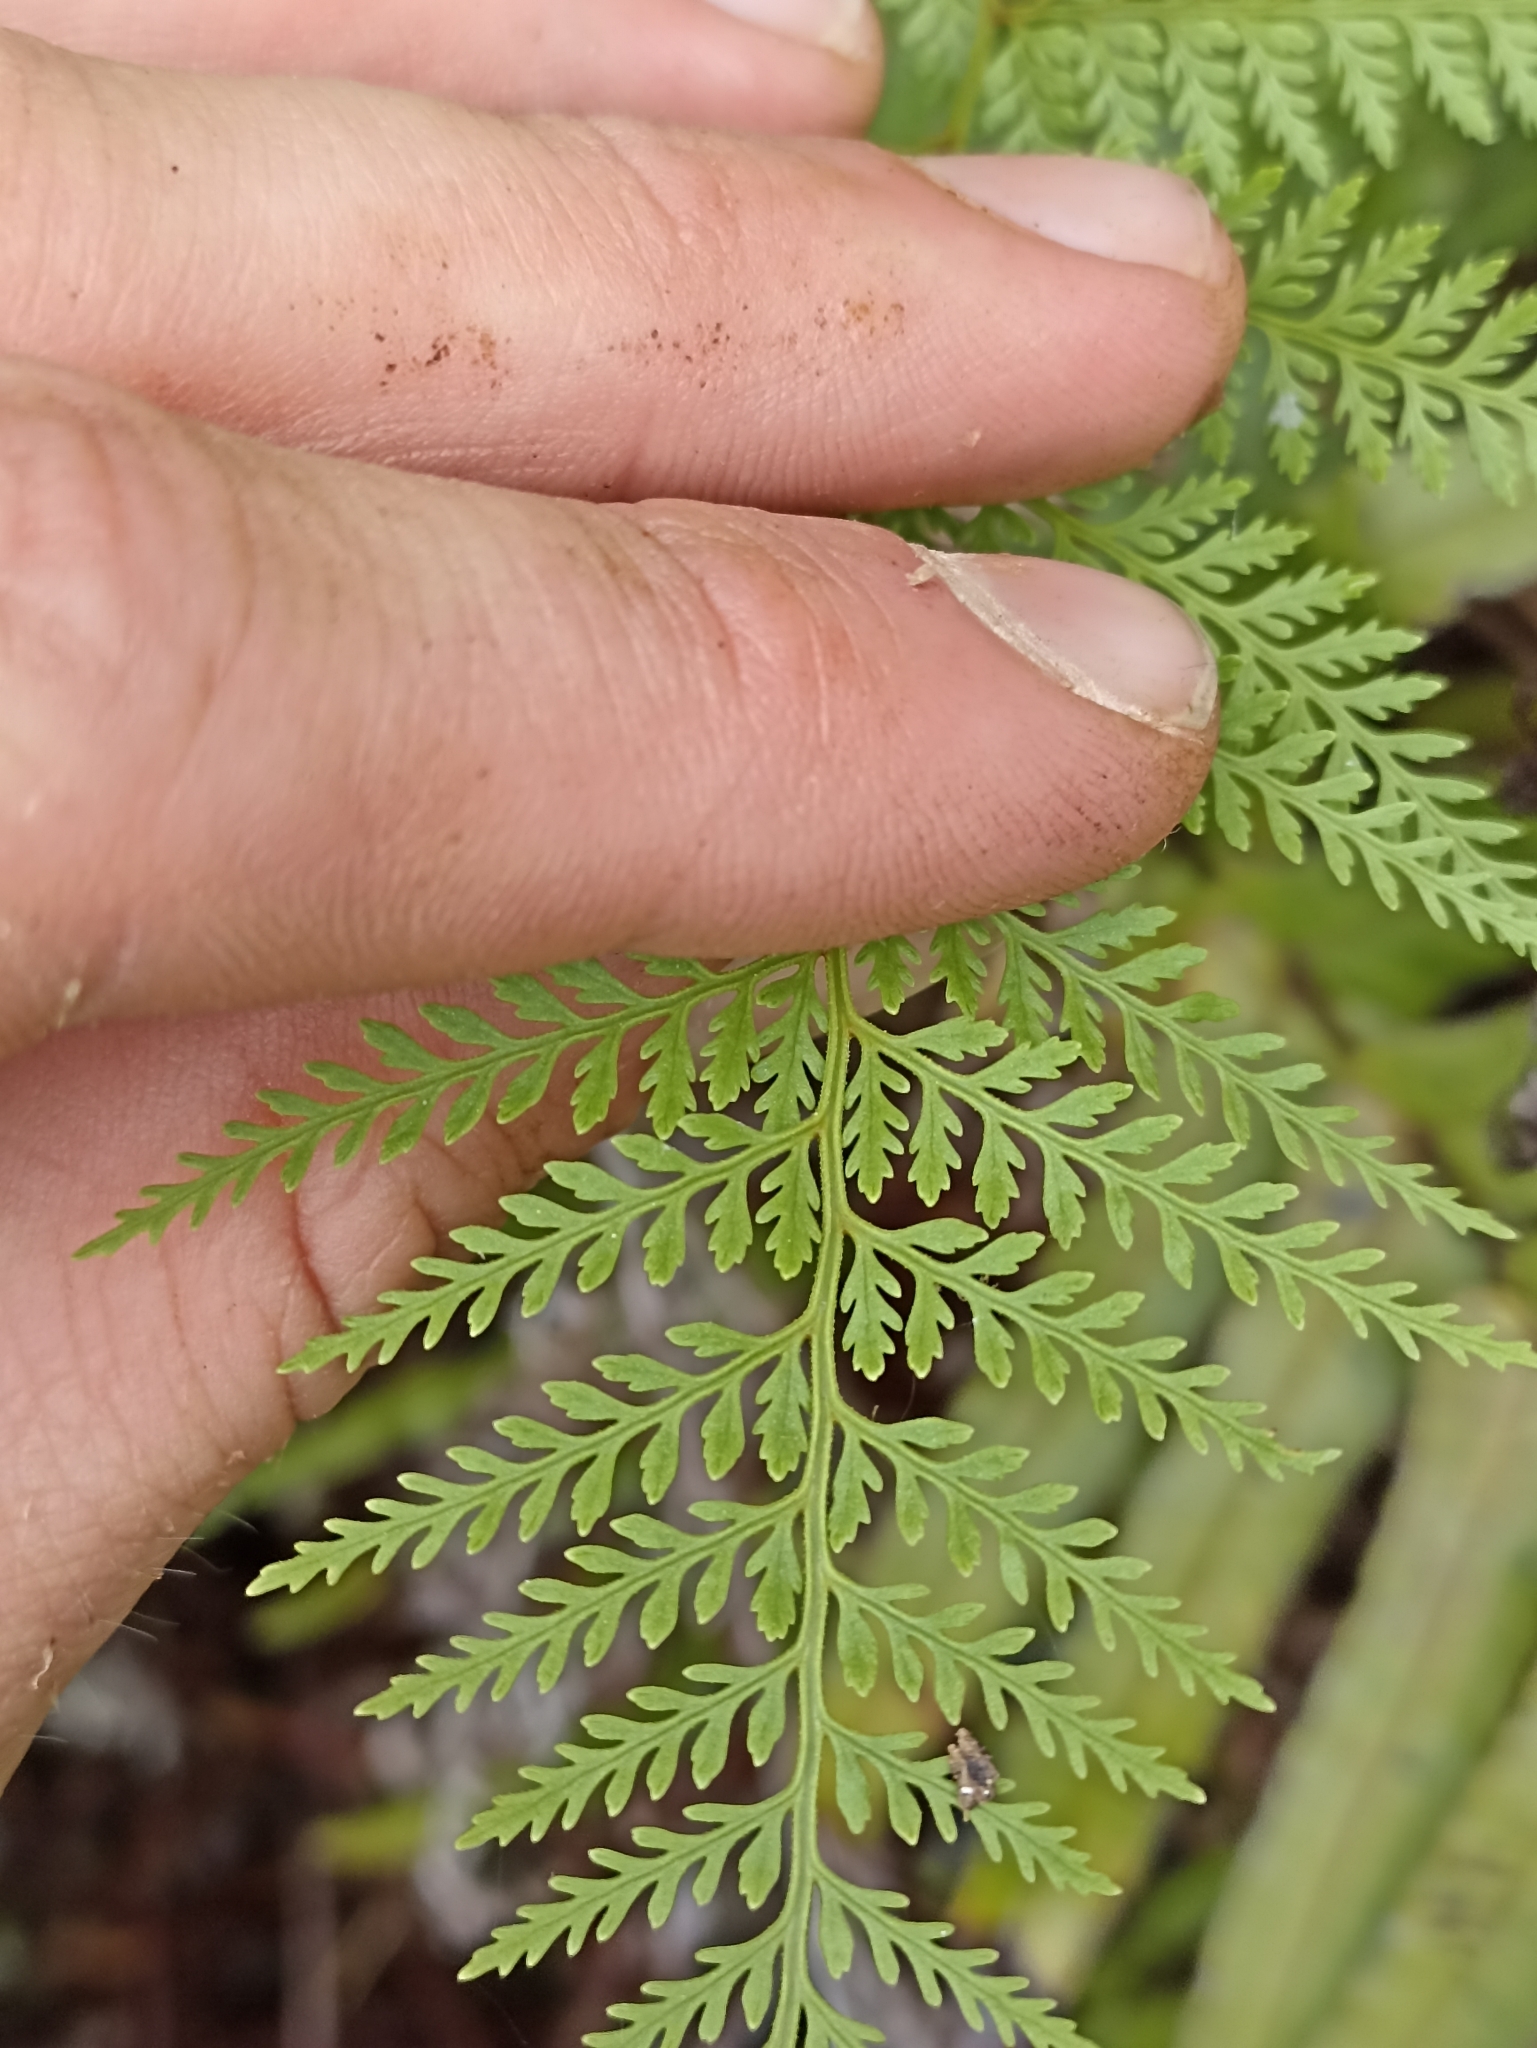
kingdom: Plantae
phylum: Tracheophyta
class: Polypodiopsida
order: Polypodiales
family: Dennstaedtiaceae
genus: Paesia
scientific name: Paesia scaberula
